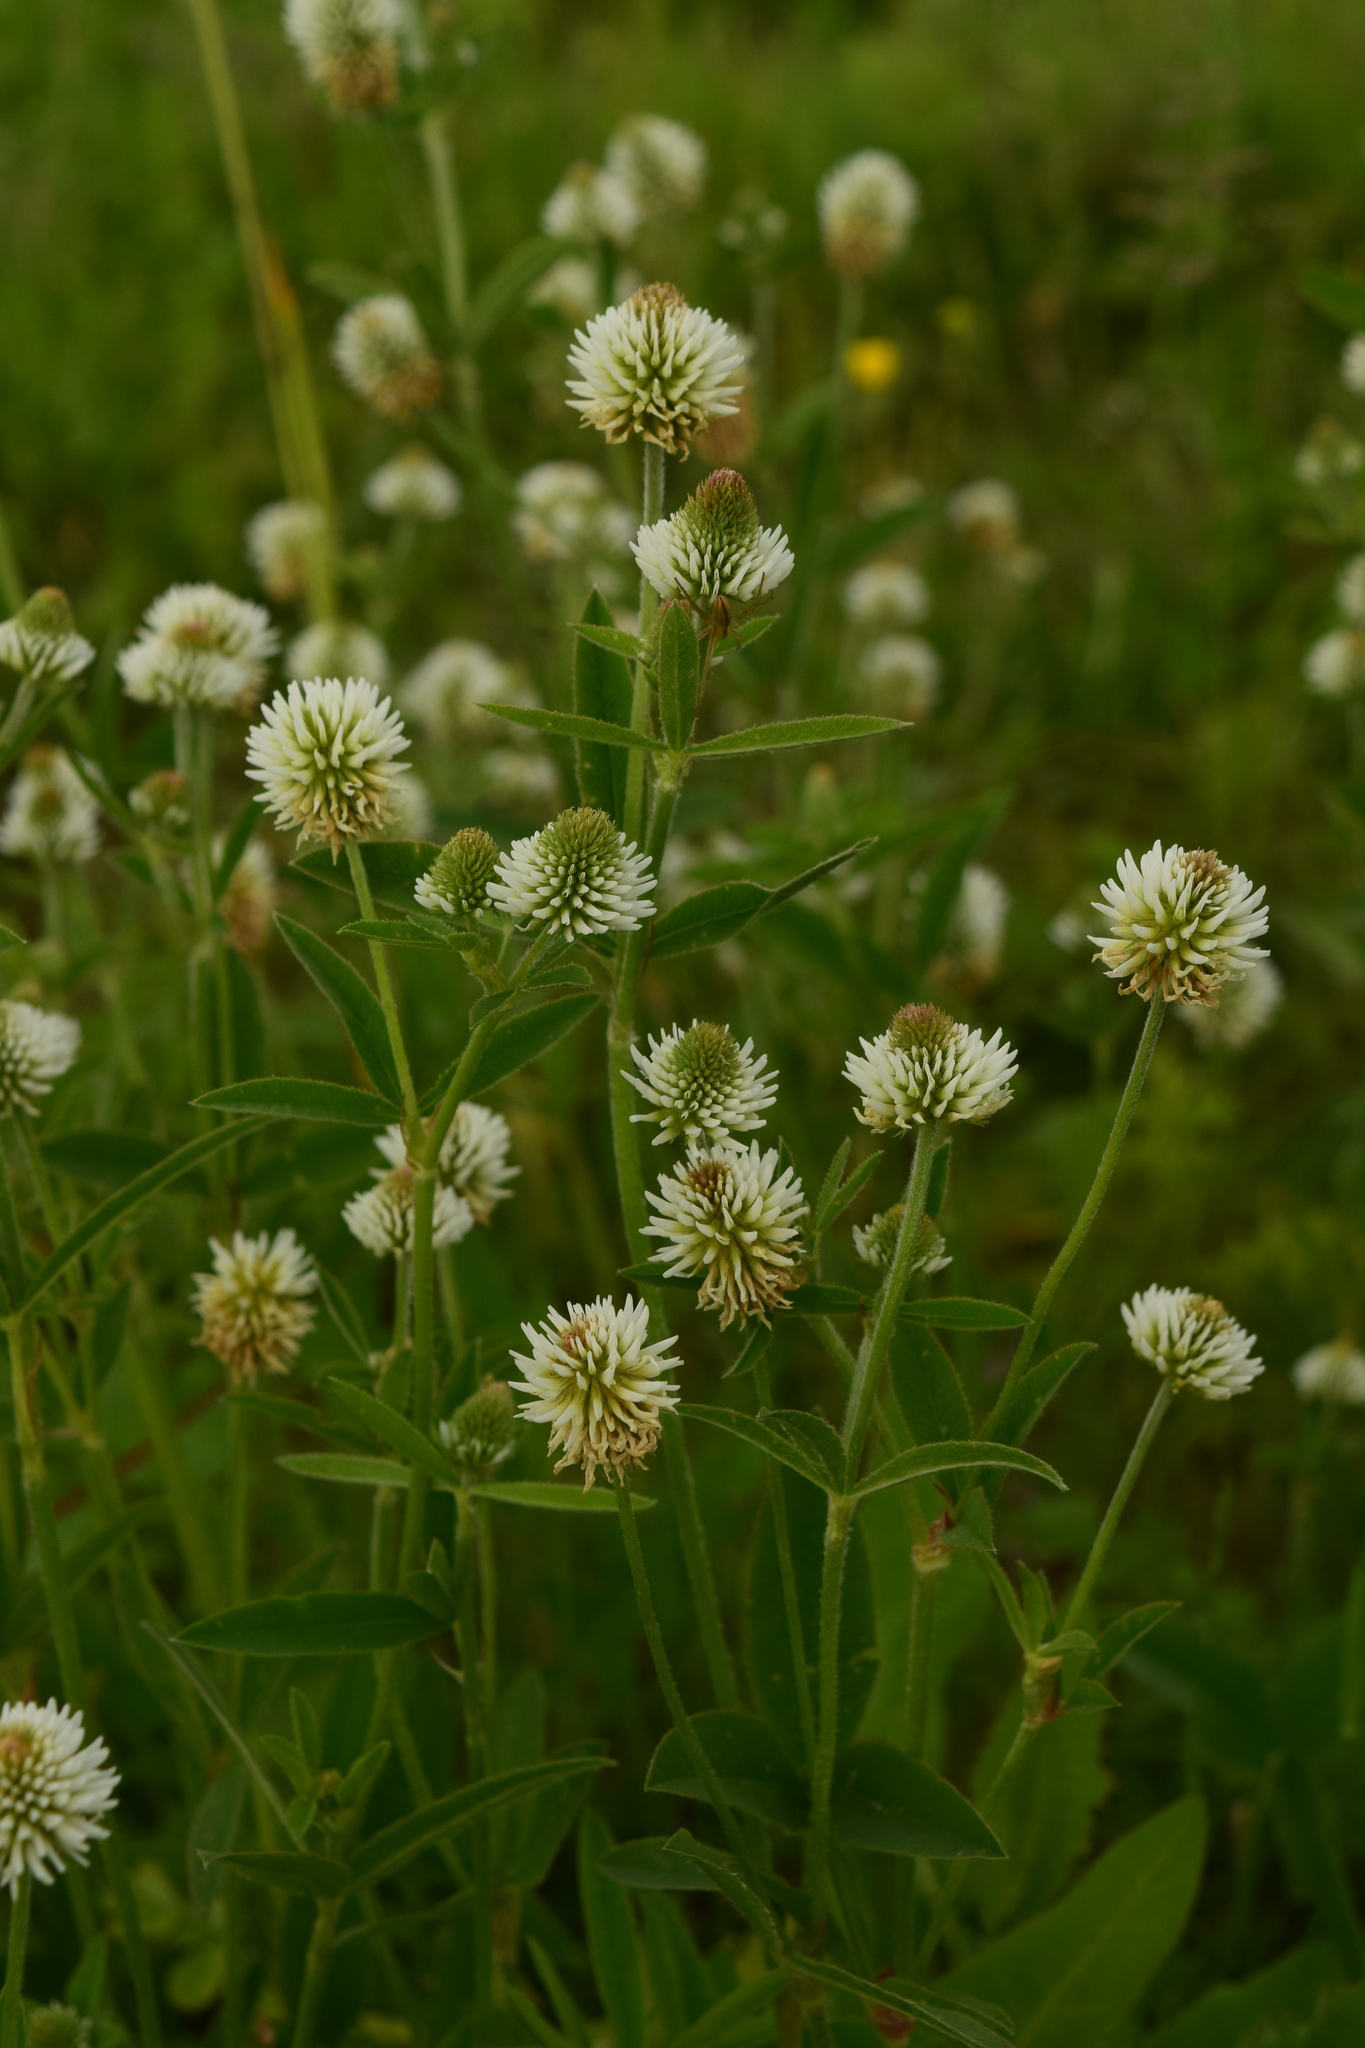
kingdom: Plantae
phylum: Tracheophyta
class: Magnoliopsida
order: Fabales
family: Fabaceae
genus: Trifolium
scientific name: Trifolium montanum
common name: Mountain clover
